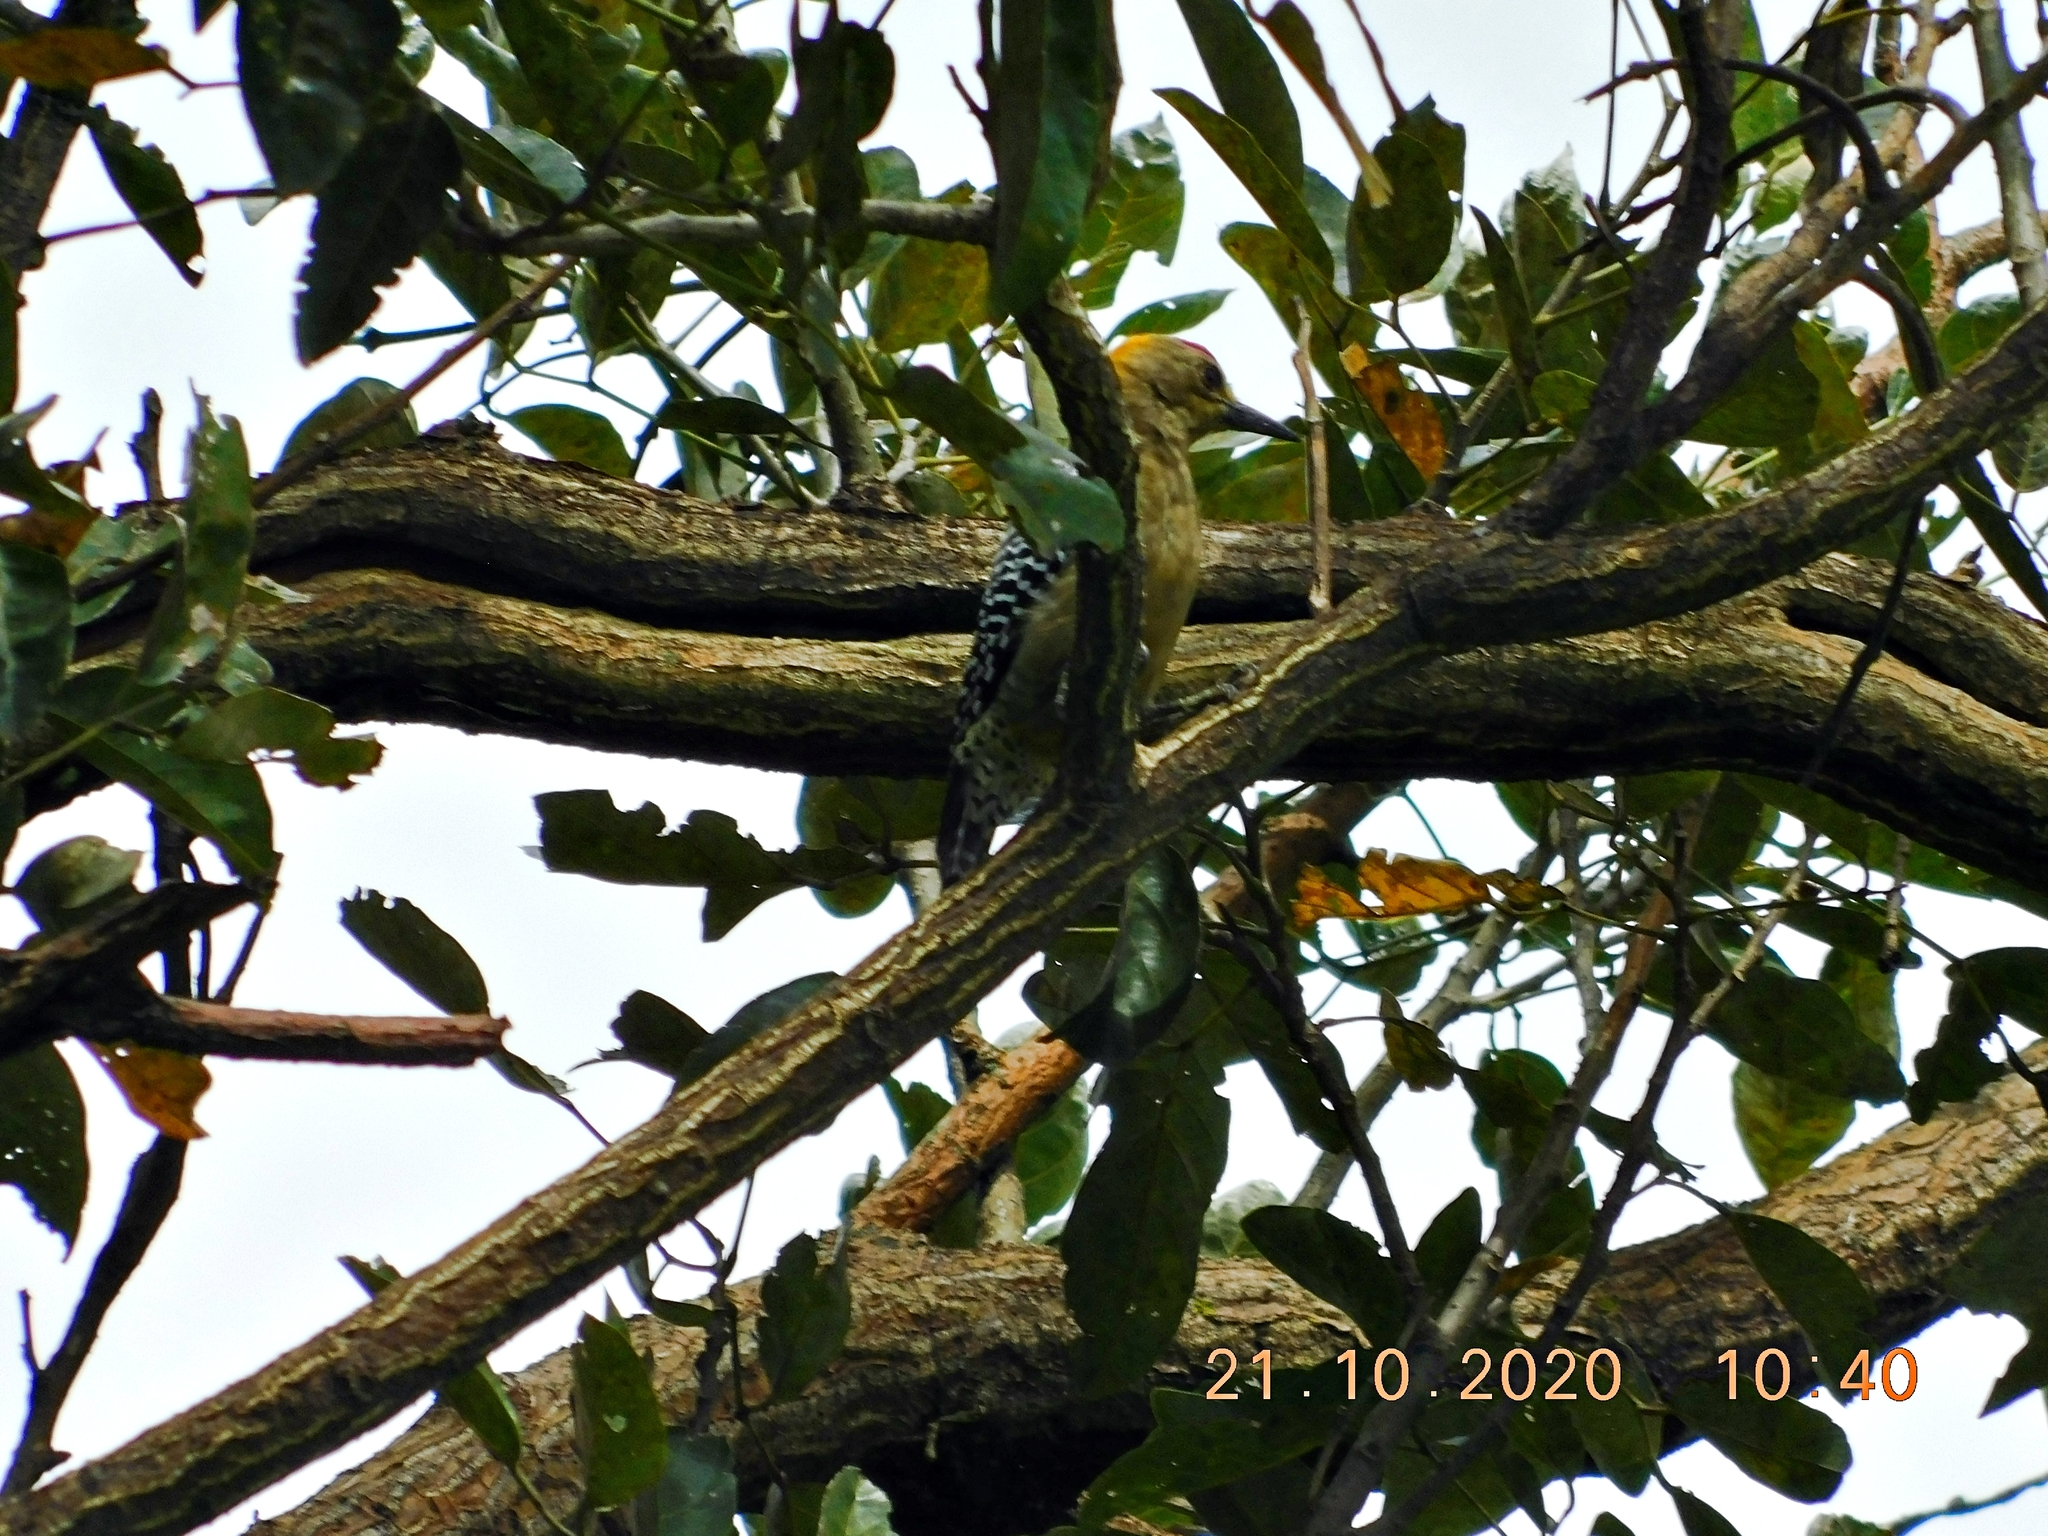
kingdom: Animalia
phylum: Chordata
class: Aves
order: Piciformes
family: Picidae
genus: Melanerpes
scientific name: Melanerpes hoffmannii
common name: Hoffmann's woodpecker
